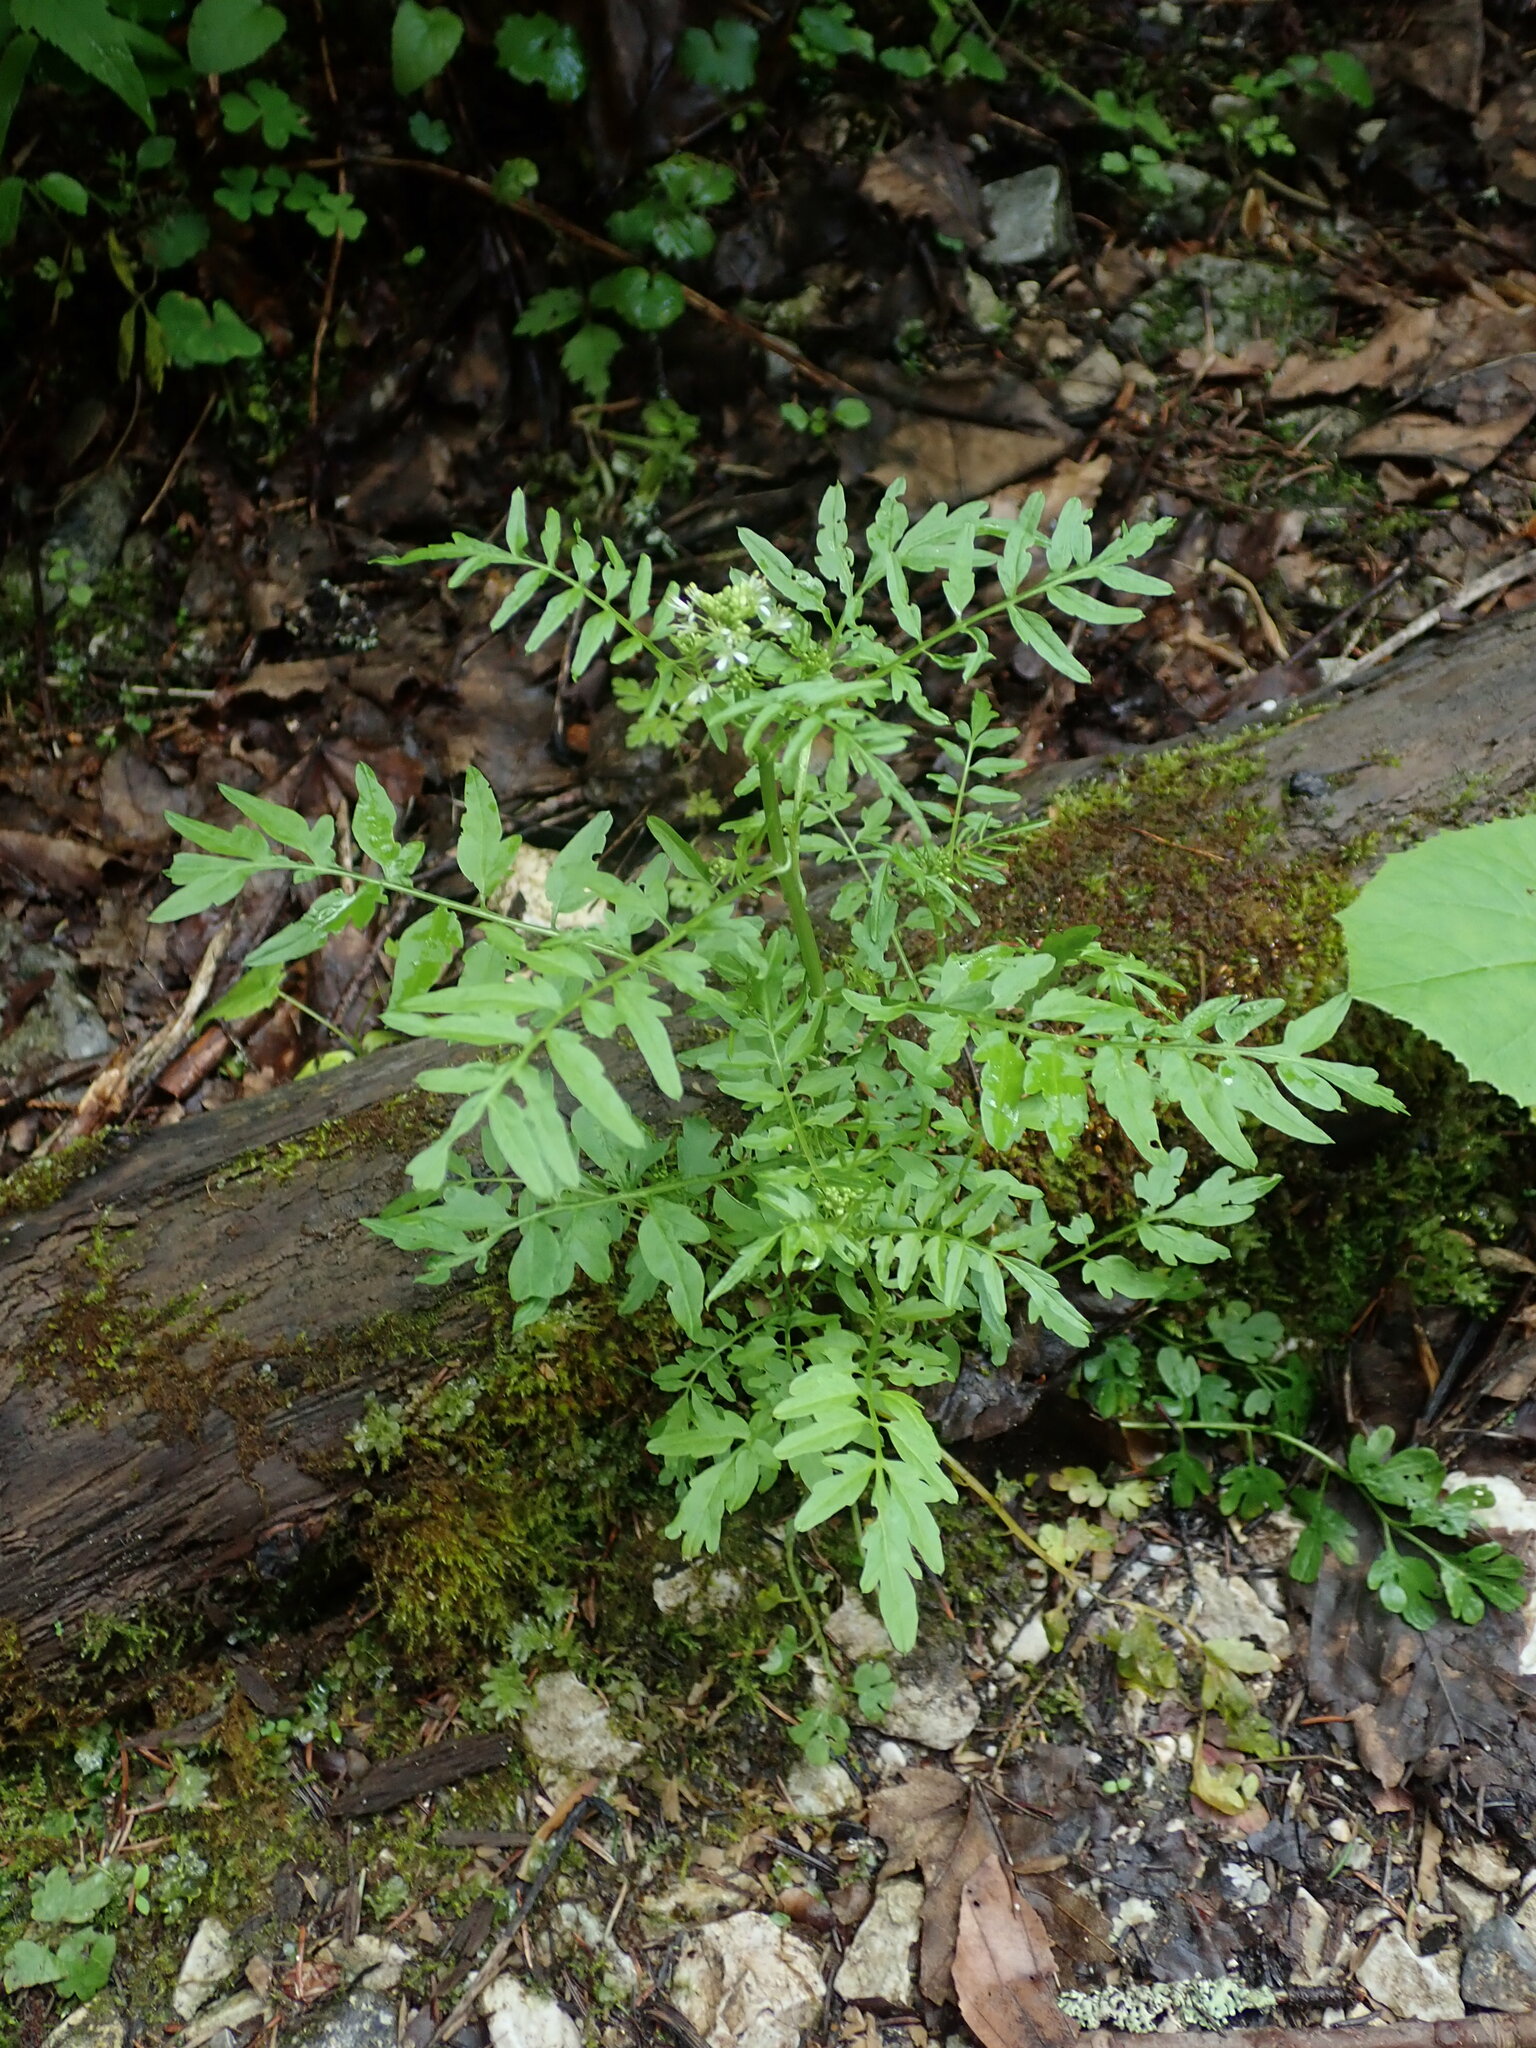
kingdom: Plantae
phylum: Tracheophyta
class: Magnoliopsida
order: Brassicales
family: Brassicaceae
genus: Cardamine
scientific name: Cardamine impatiens
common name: Narrow-leaved bitter-cress
